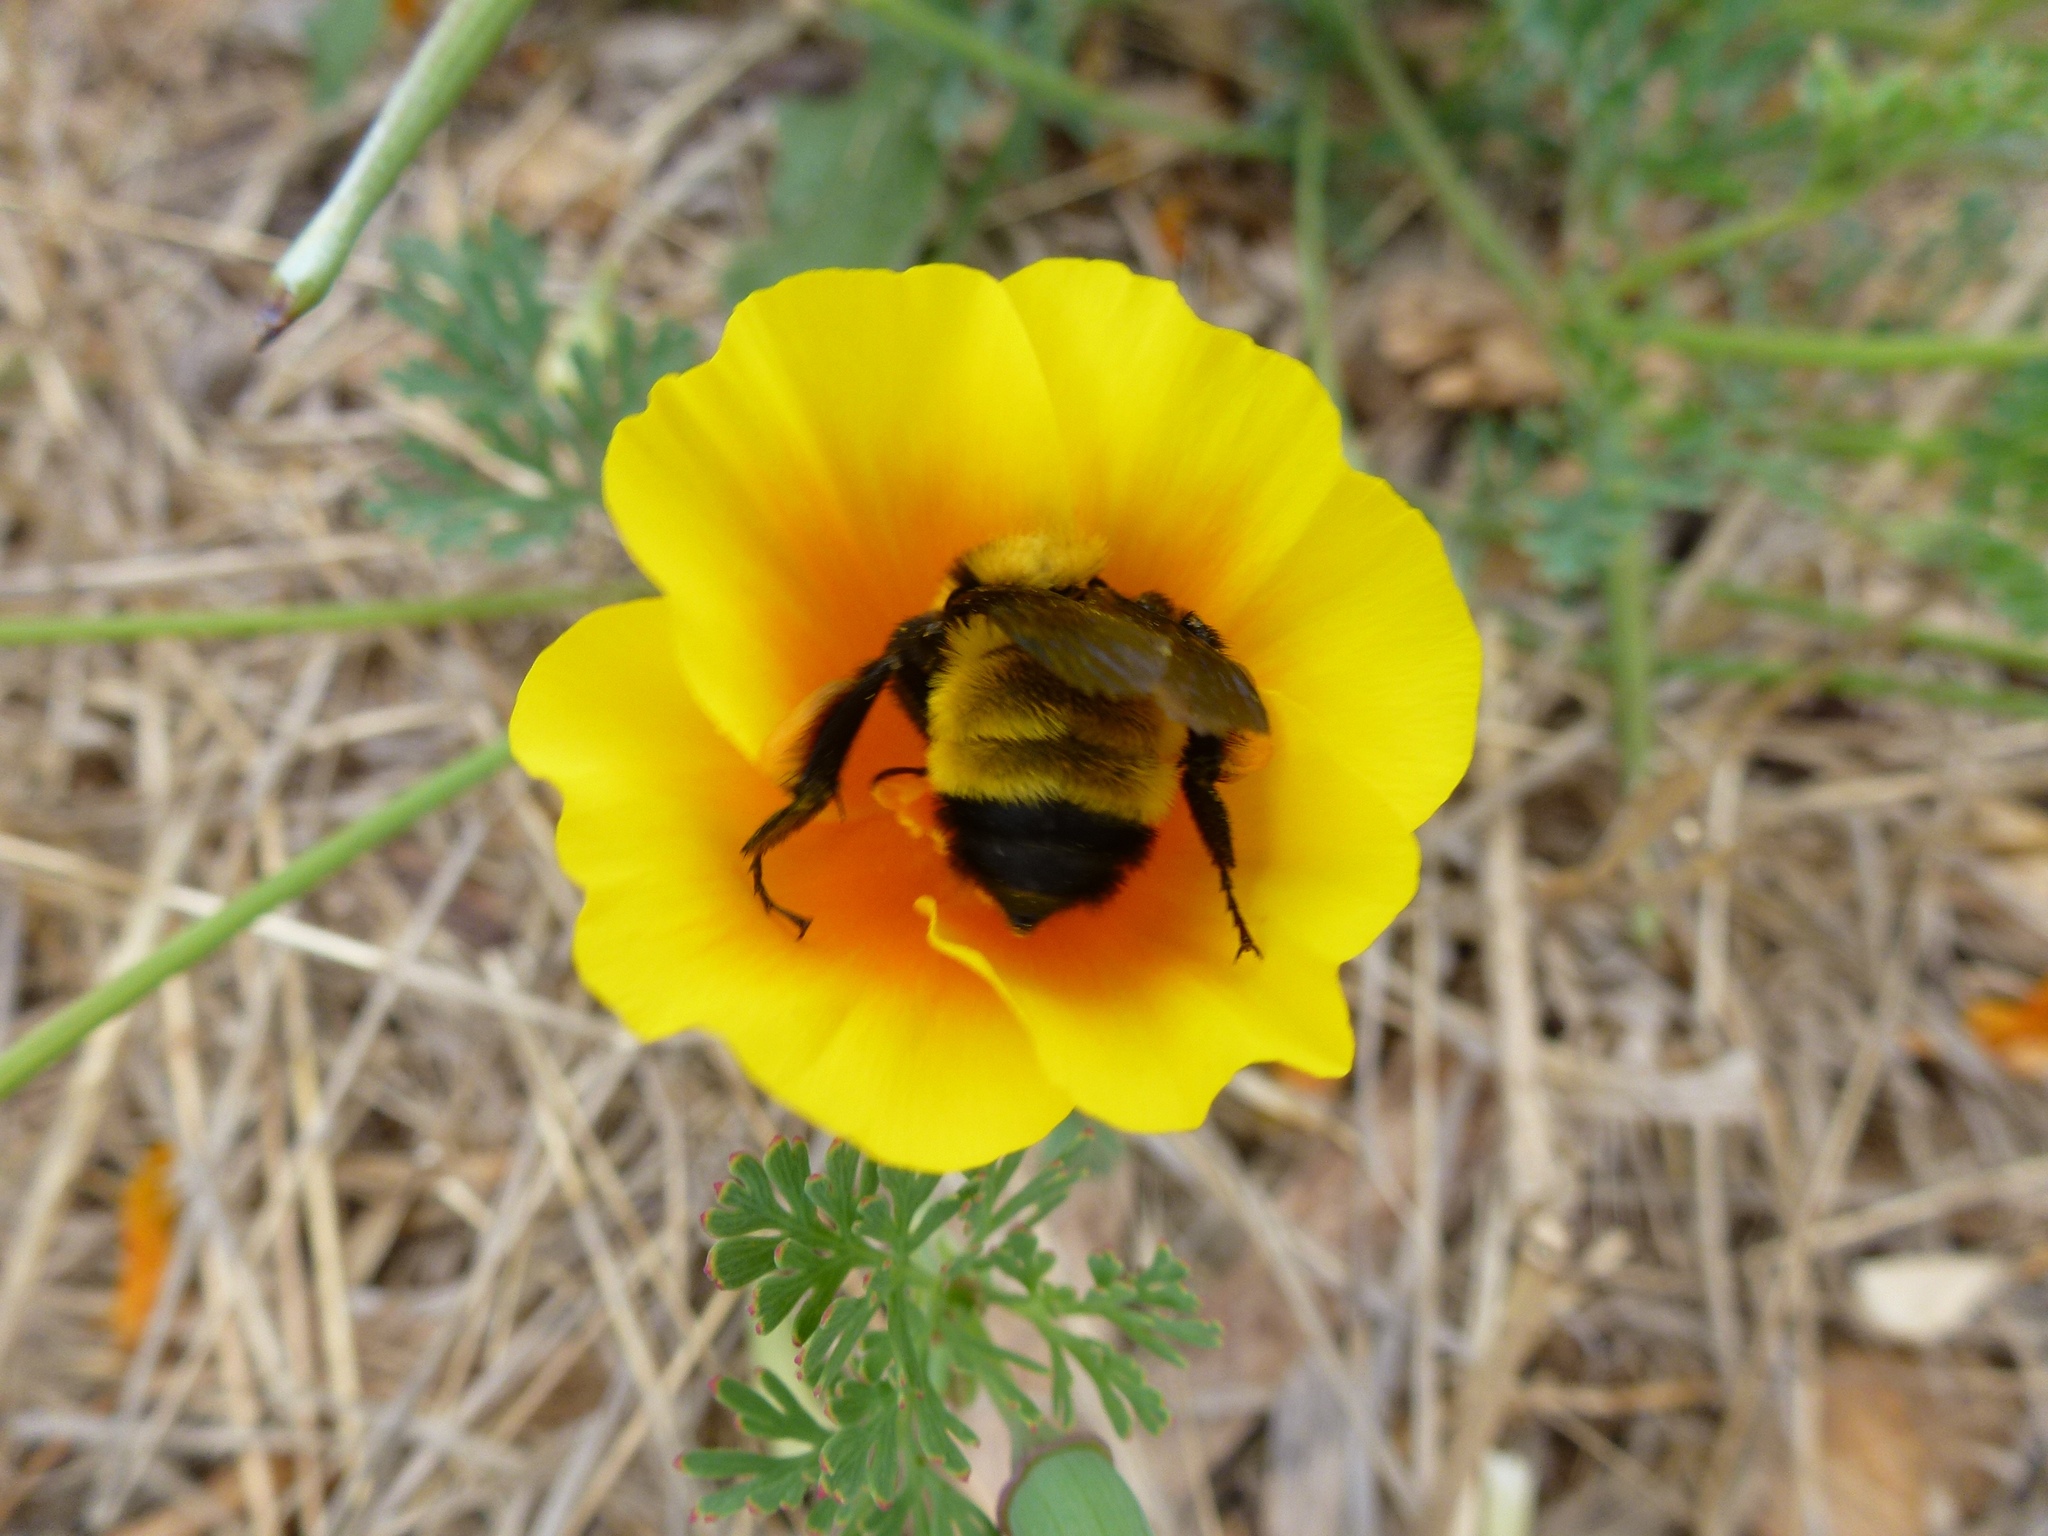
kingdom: Animalia
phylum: Arthropoda
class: Insecta
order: Hymenoptera
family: Apidae
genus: Bombus
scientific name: Bombus sonorus
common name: Sonoran bumble bee
